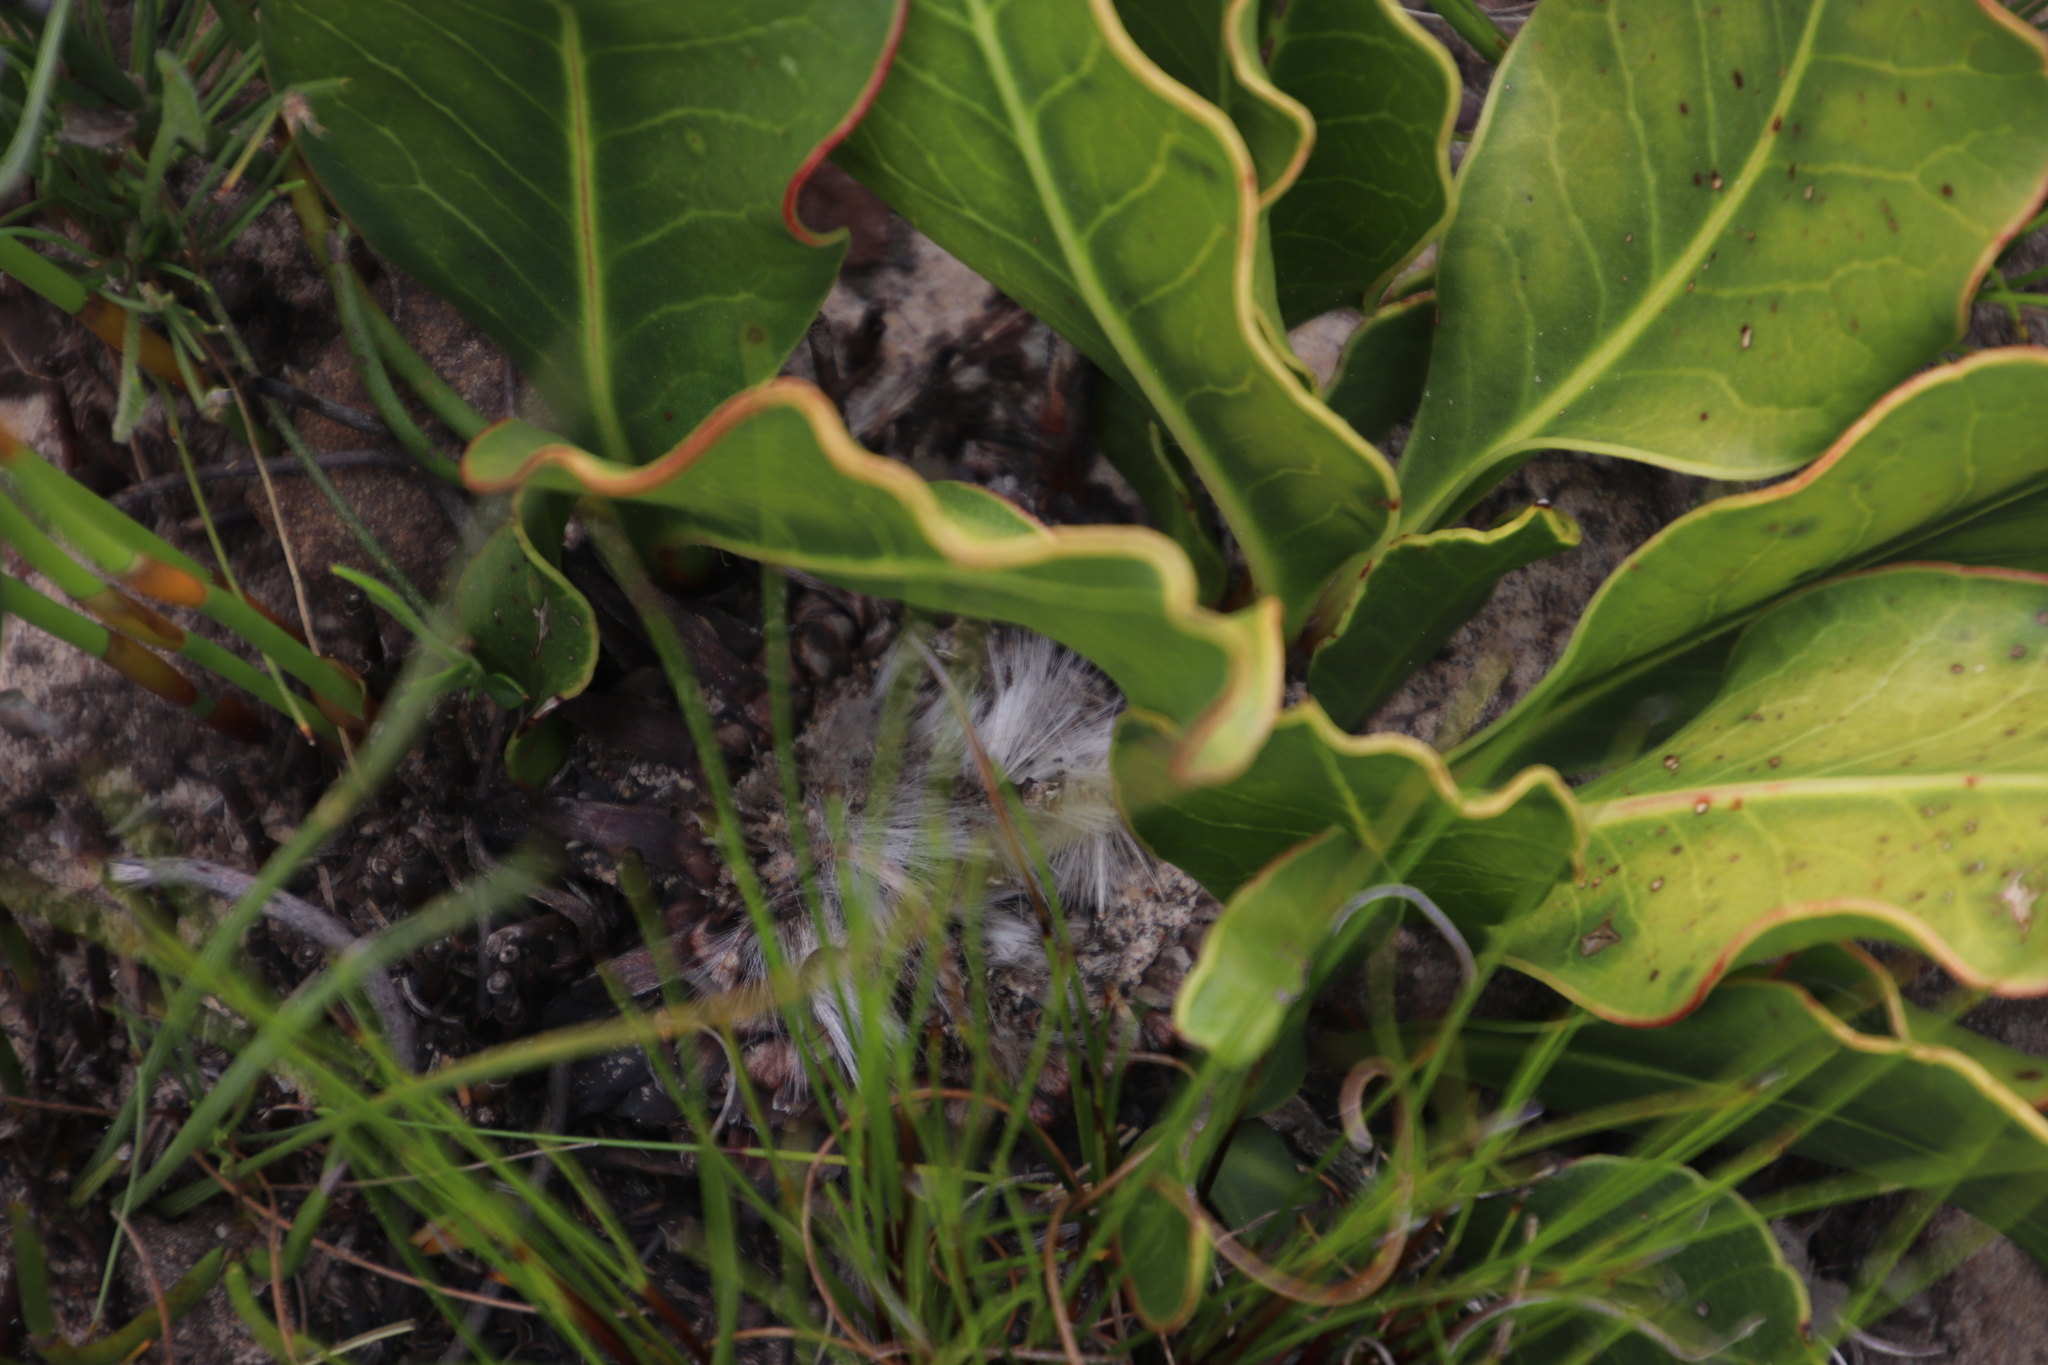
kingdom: Plantae
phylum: Tracheophyta
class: Magnoliopsida
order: Proteales
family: Proteaceae
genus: Protea
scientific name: Protea scolopendriifolia
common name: Harts-tongue-fern sugarbush
